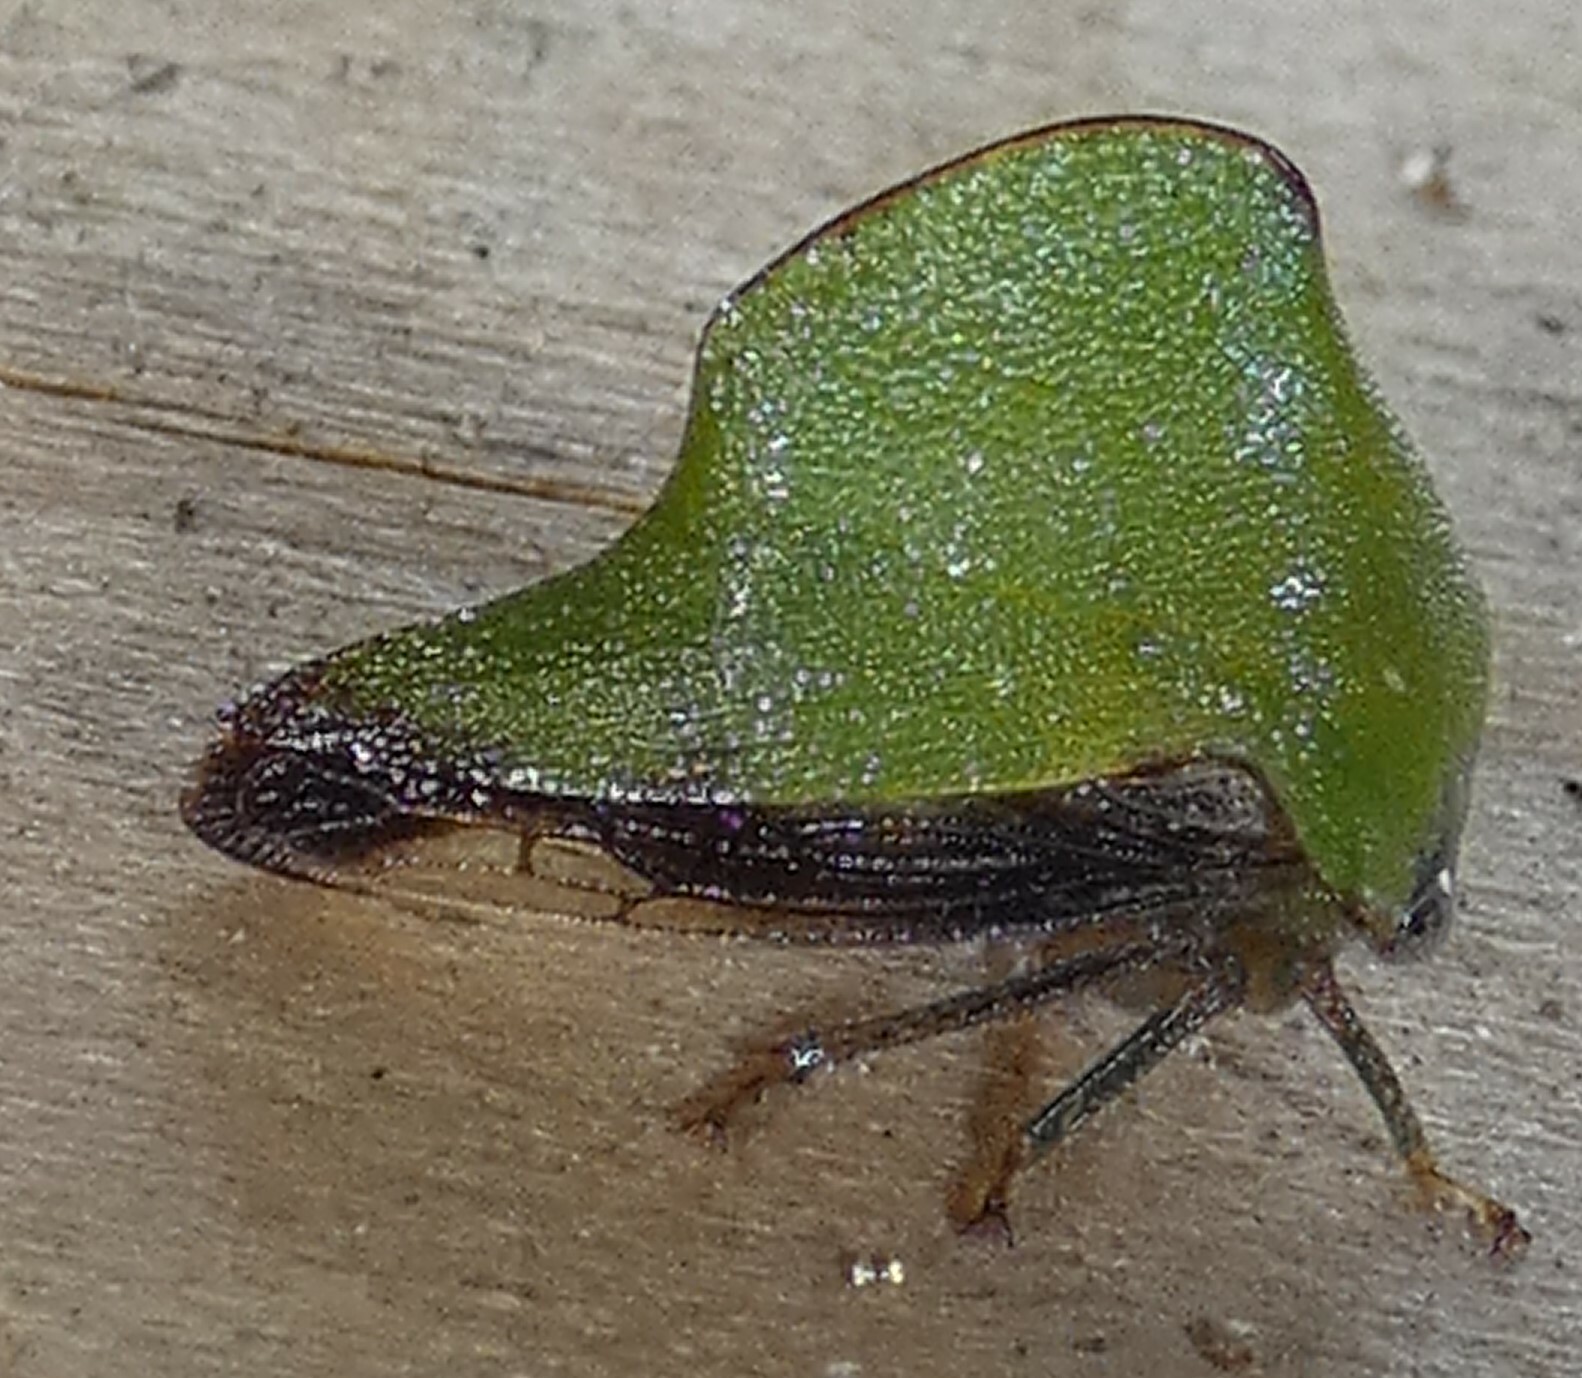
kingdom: Animalia
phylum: Arthropoda
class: Insecta
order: Hemiptera
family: Membracidae
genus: Helonica
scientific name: Helonica excelsa
